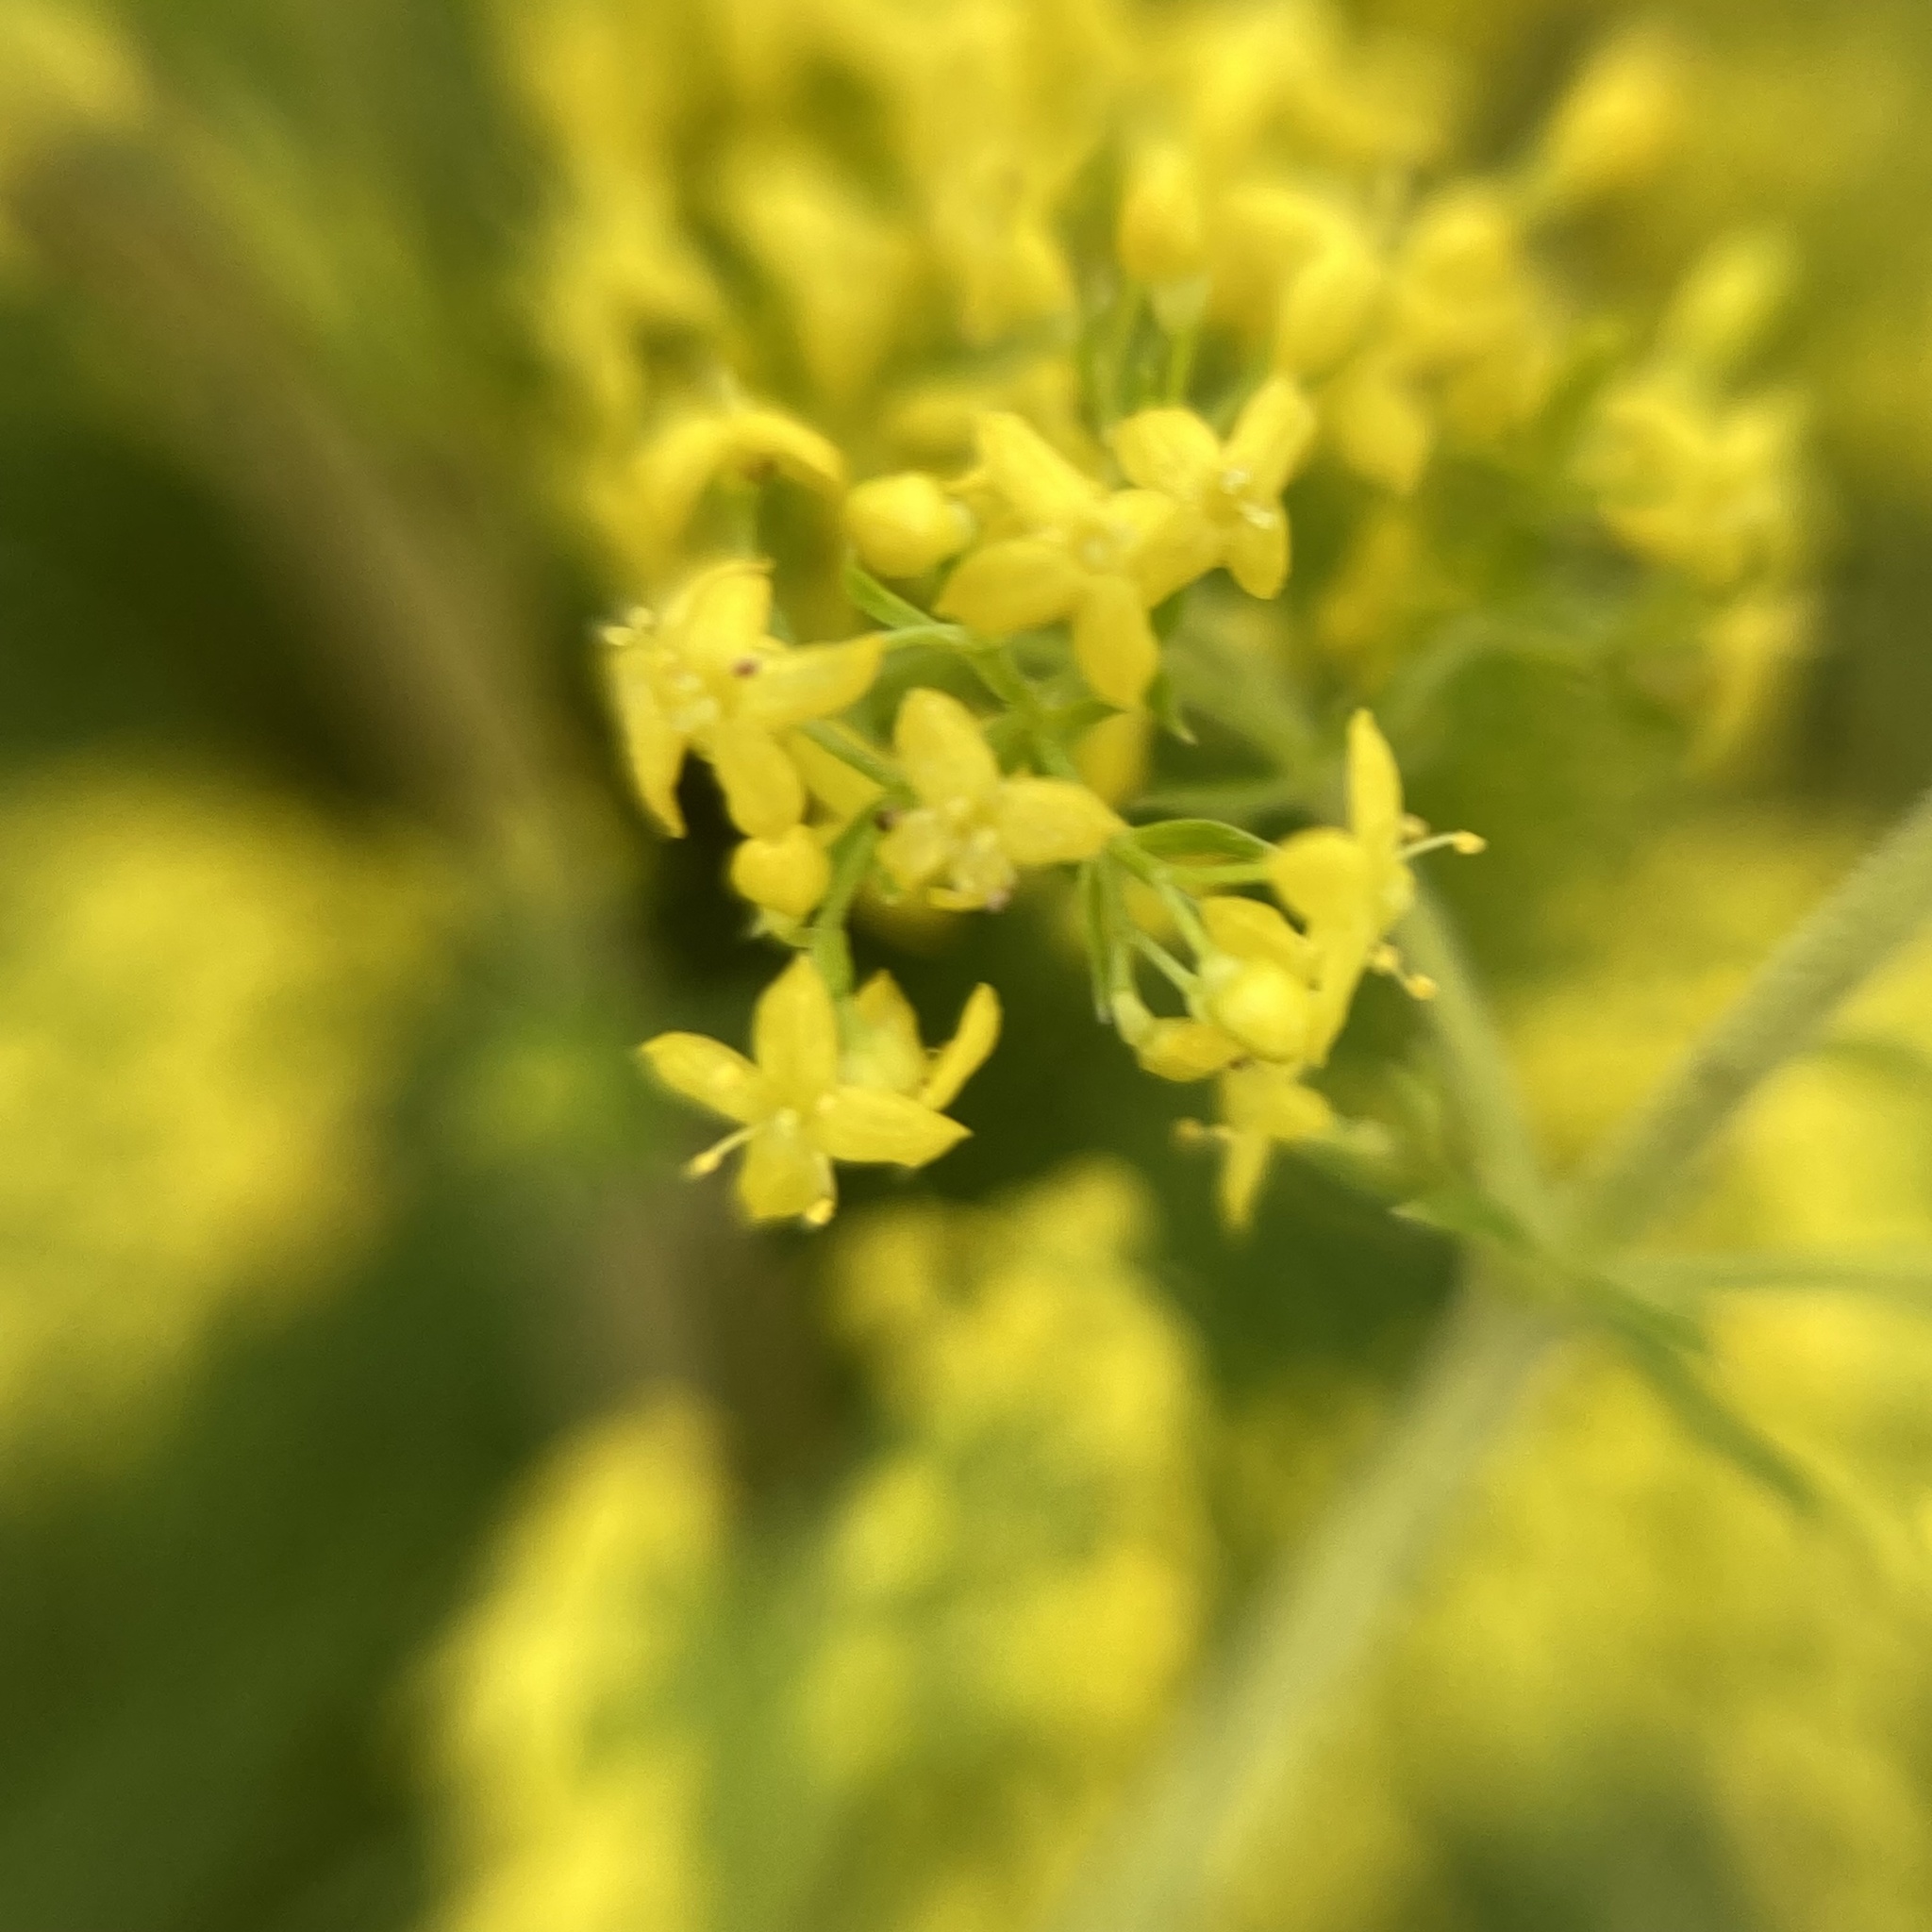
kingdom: Plantae
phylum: Tracheophyta
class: Magnoliopsida
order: Gentianales
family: Rubiaceae
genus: Galium
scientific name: Galium verum
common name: Lady's bedstraw
